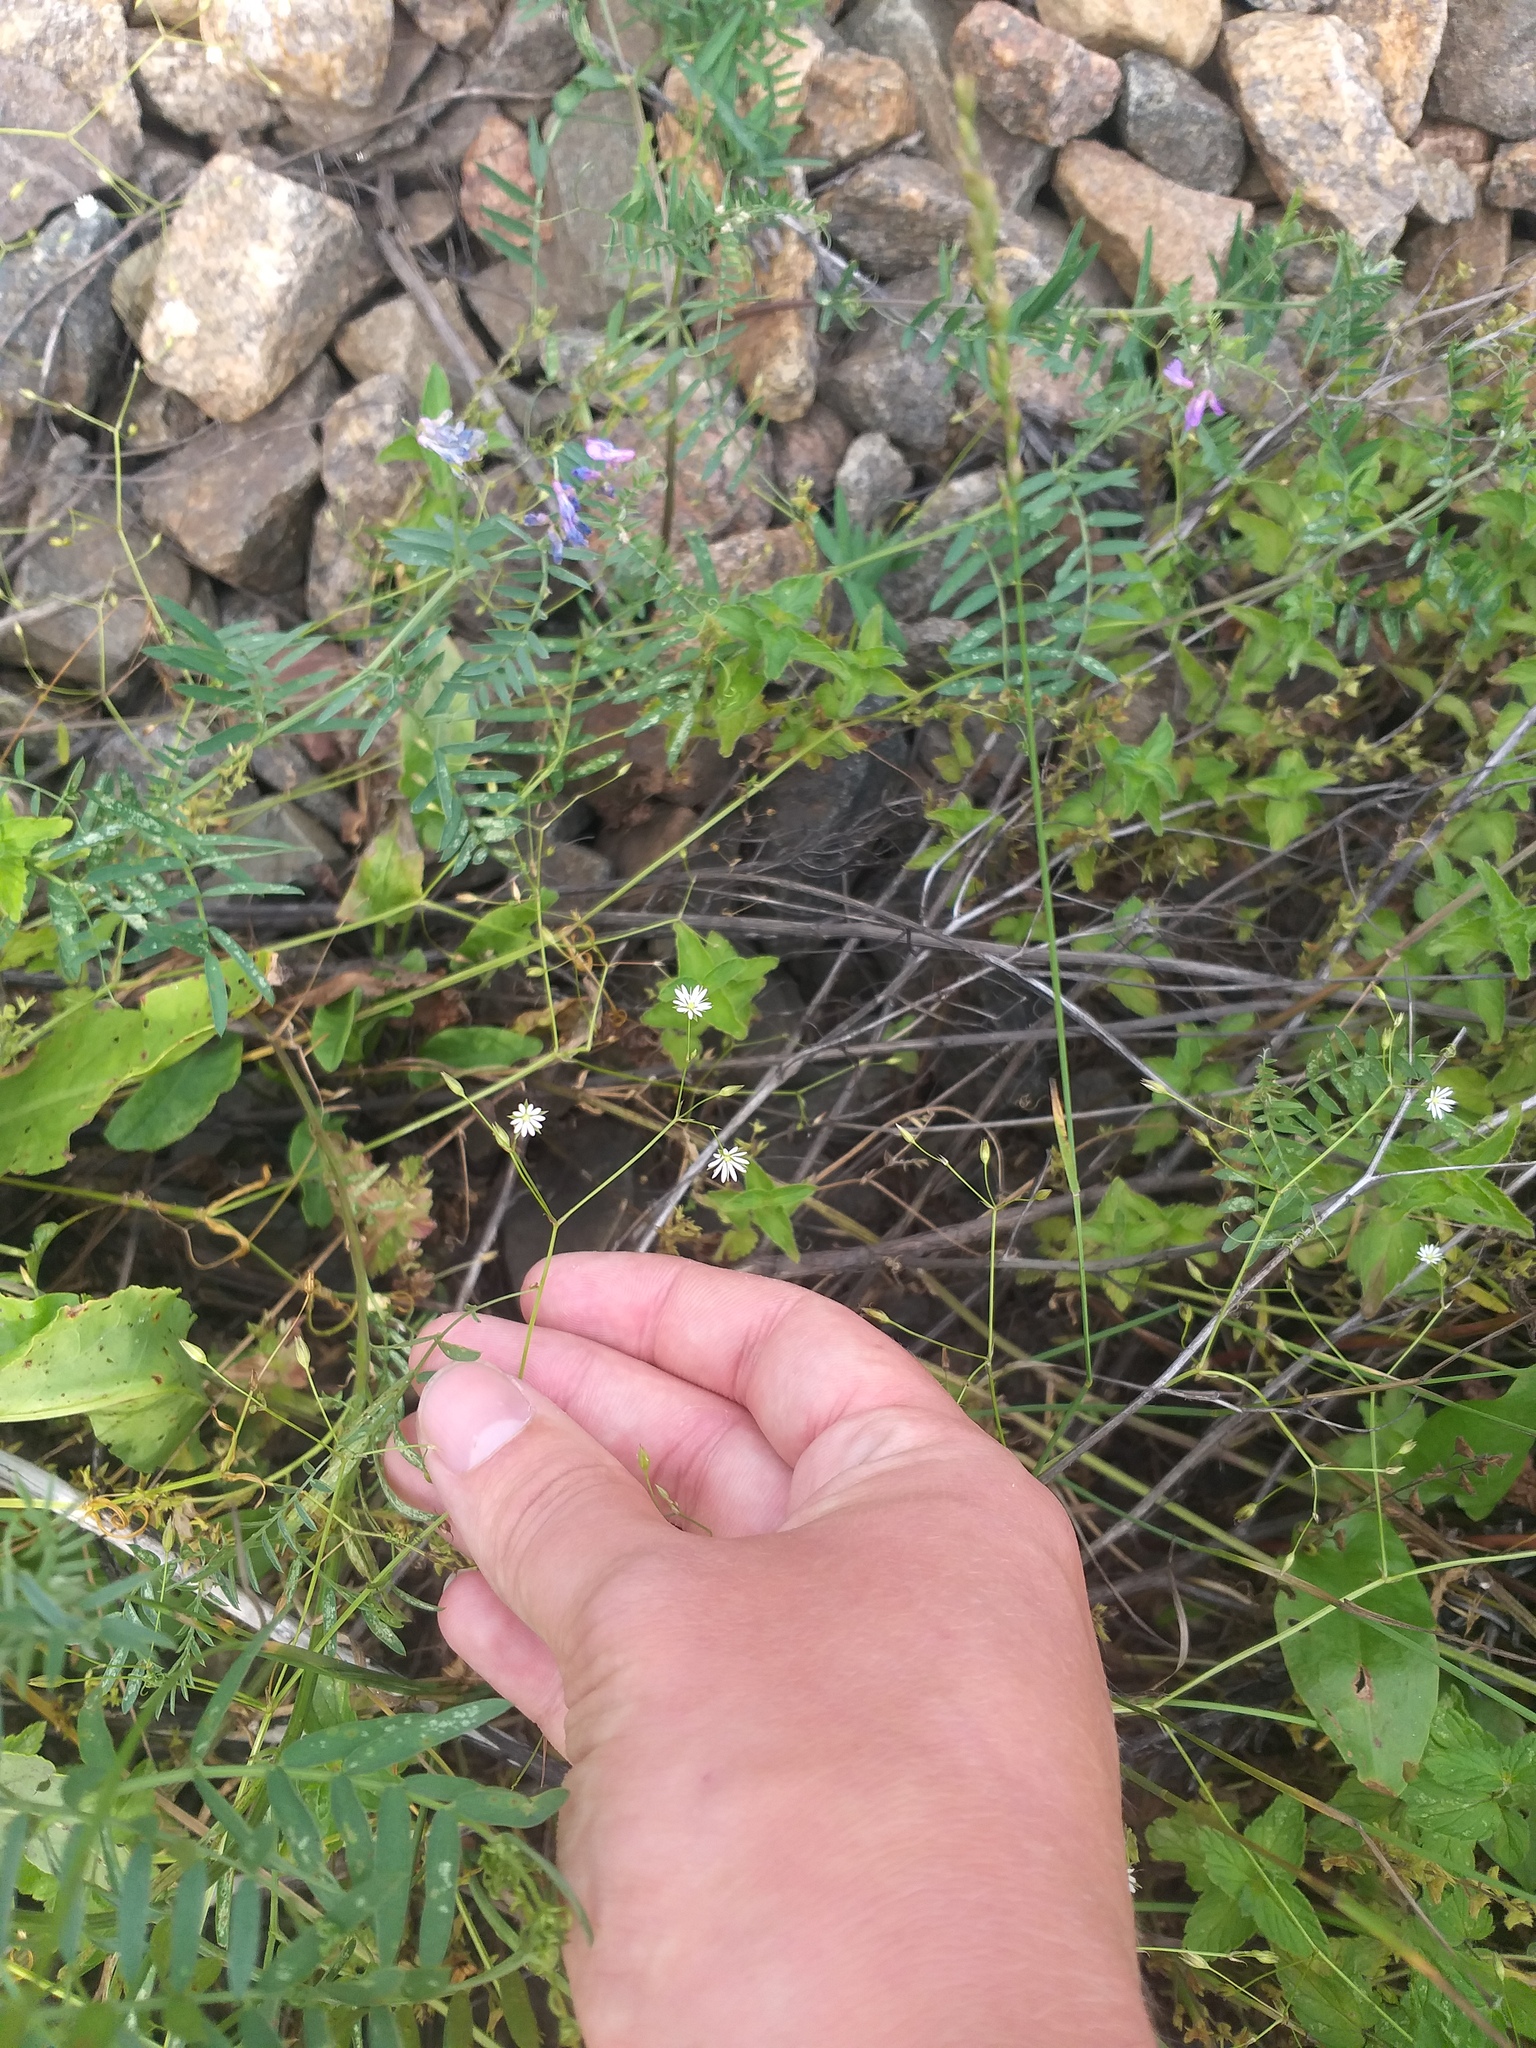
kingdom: Plantae
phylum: Tracheophyta
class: Magnoliopsida
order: Caryophyllales
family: Caryophyllaceae
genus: Stellaria
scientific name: Stellaria graminea
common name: Grass-like starwort
